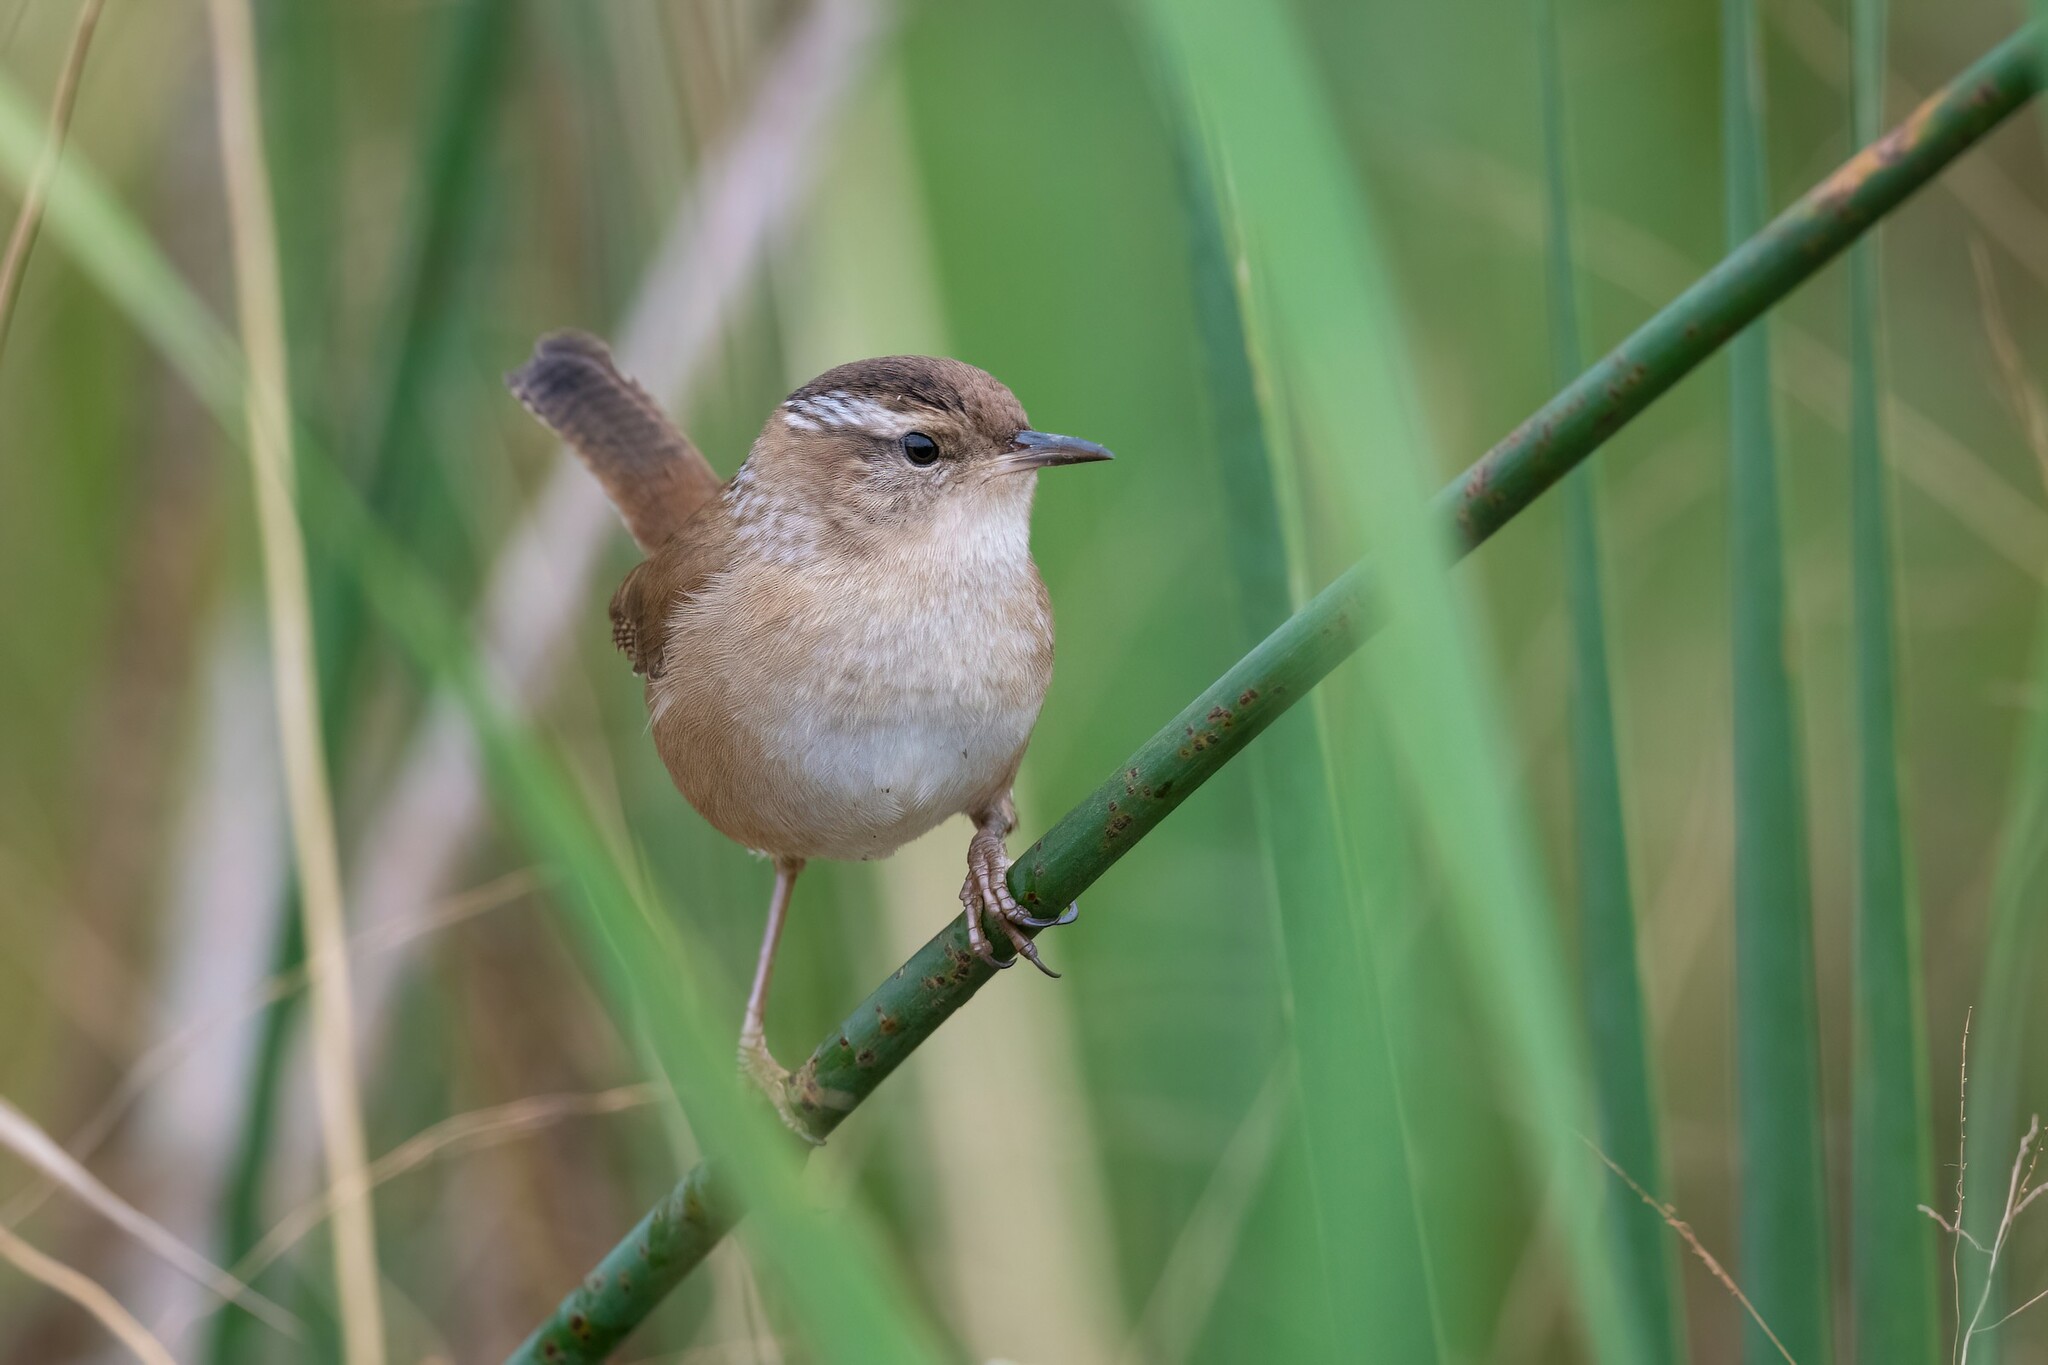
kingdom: Animalia
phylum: Chordata
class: Aves
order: Passeriformes
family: Troglodytidae
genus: Cistothorus
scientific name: Cistothorus palustris
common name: Marsh wren
